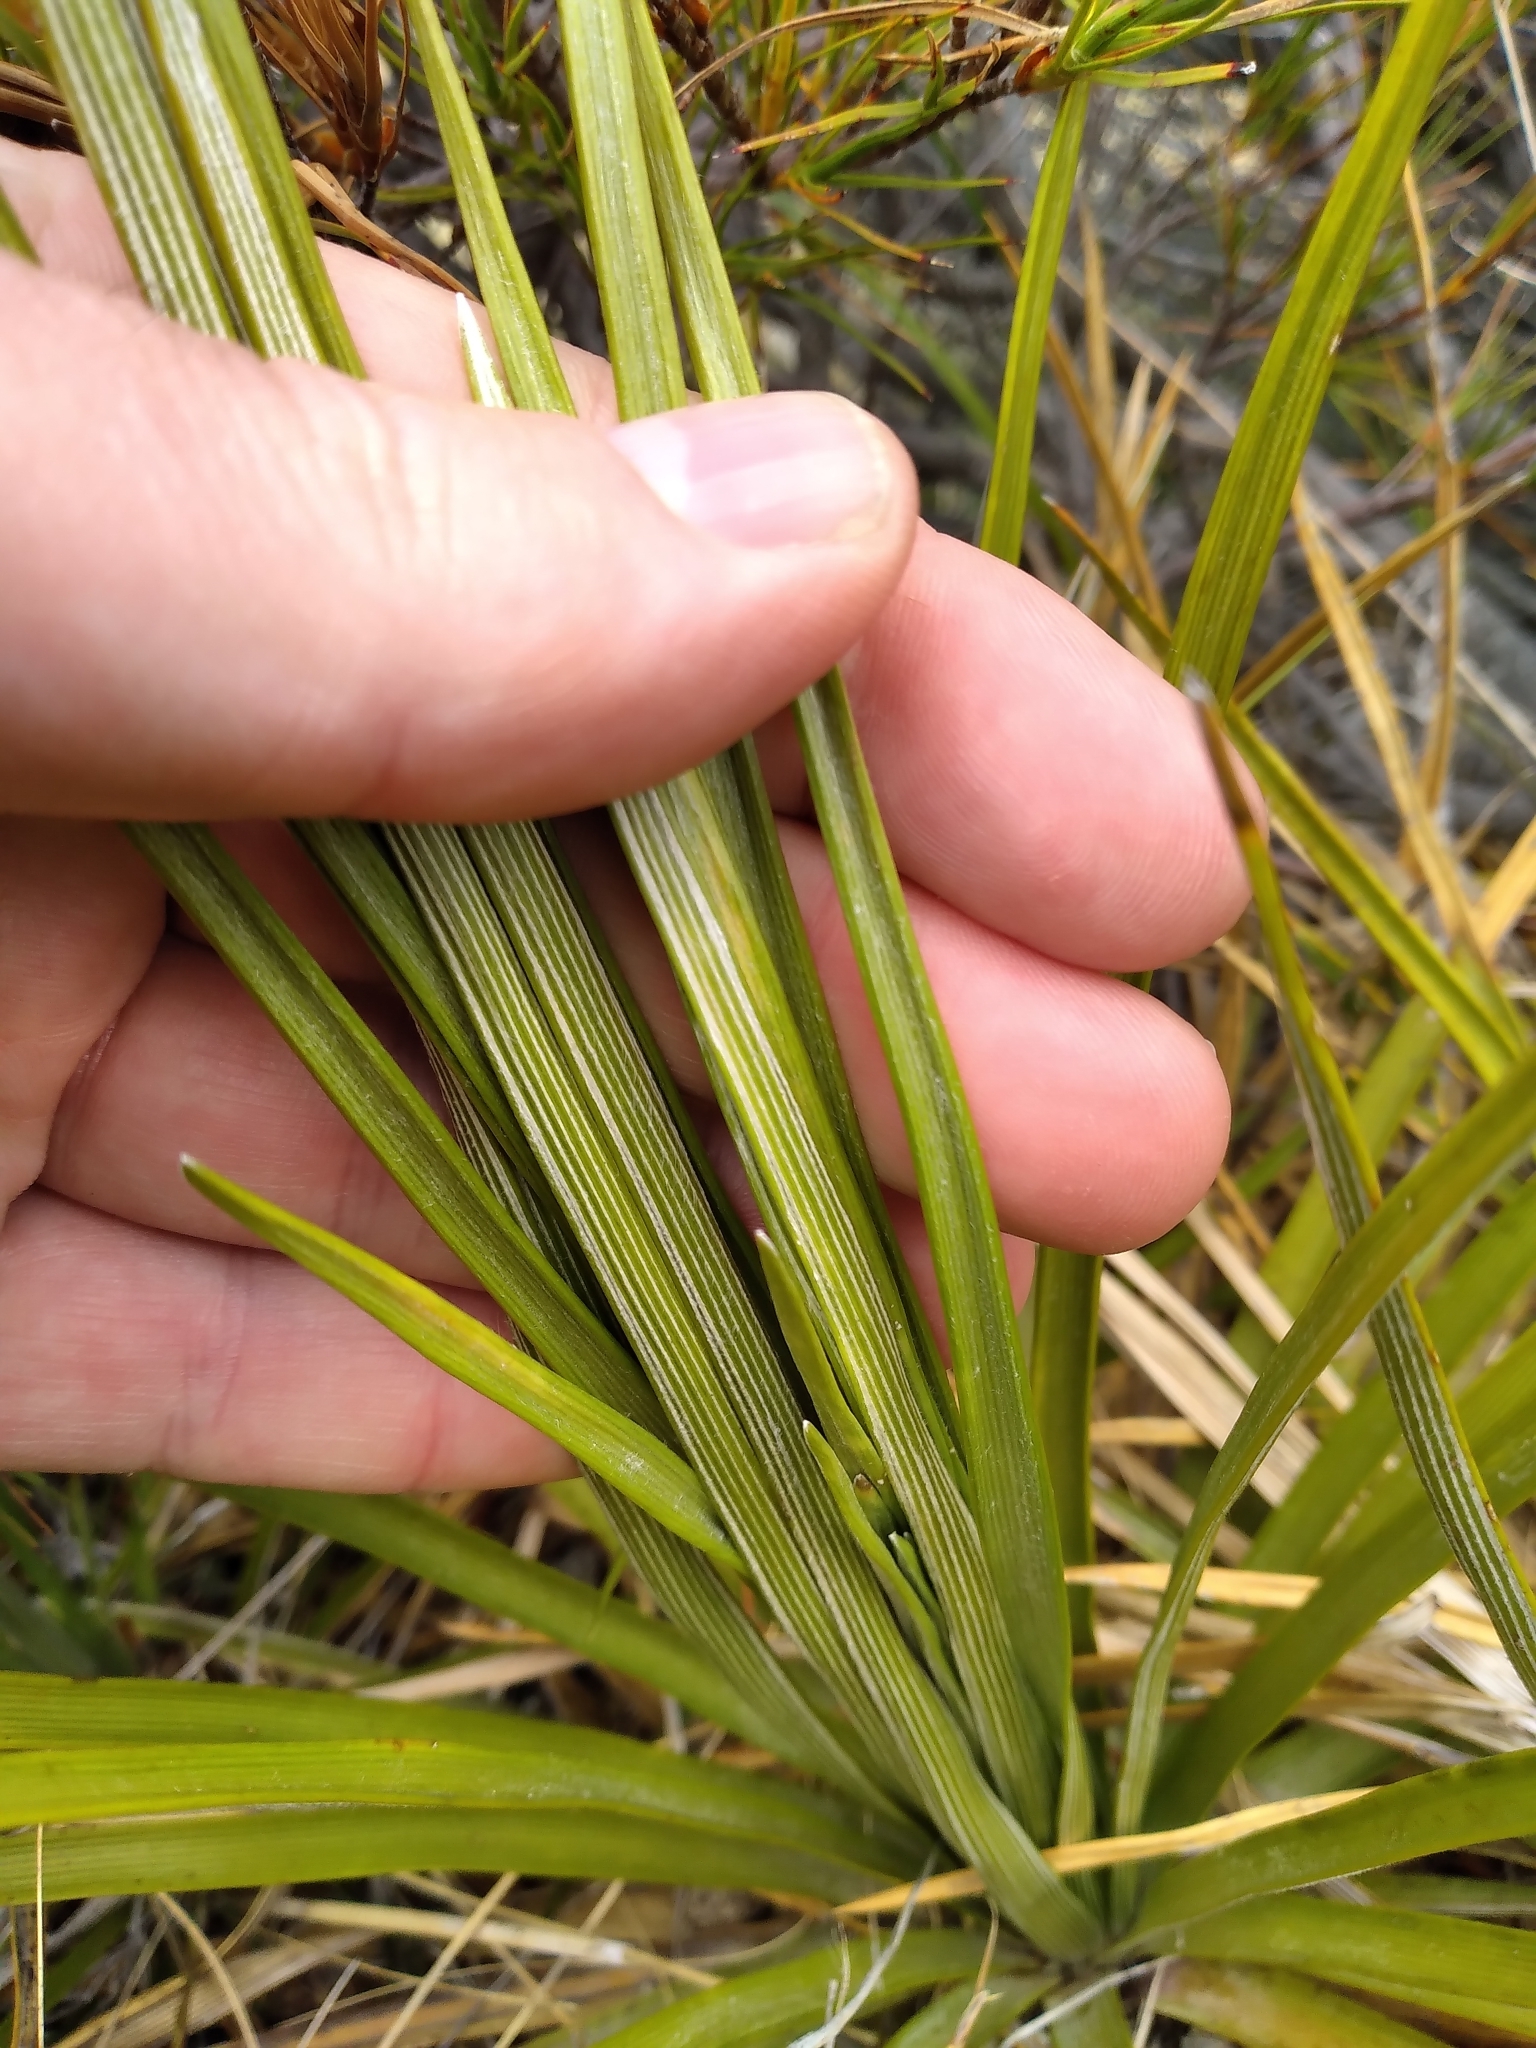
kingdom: Plantae
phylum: Tracheophyta
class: Magnoliopsida
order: Asterales
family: Asteraceae
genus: Celmisia
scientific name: Celmisia lyallii
